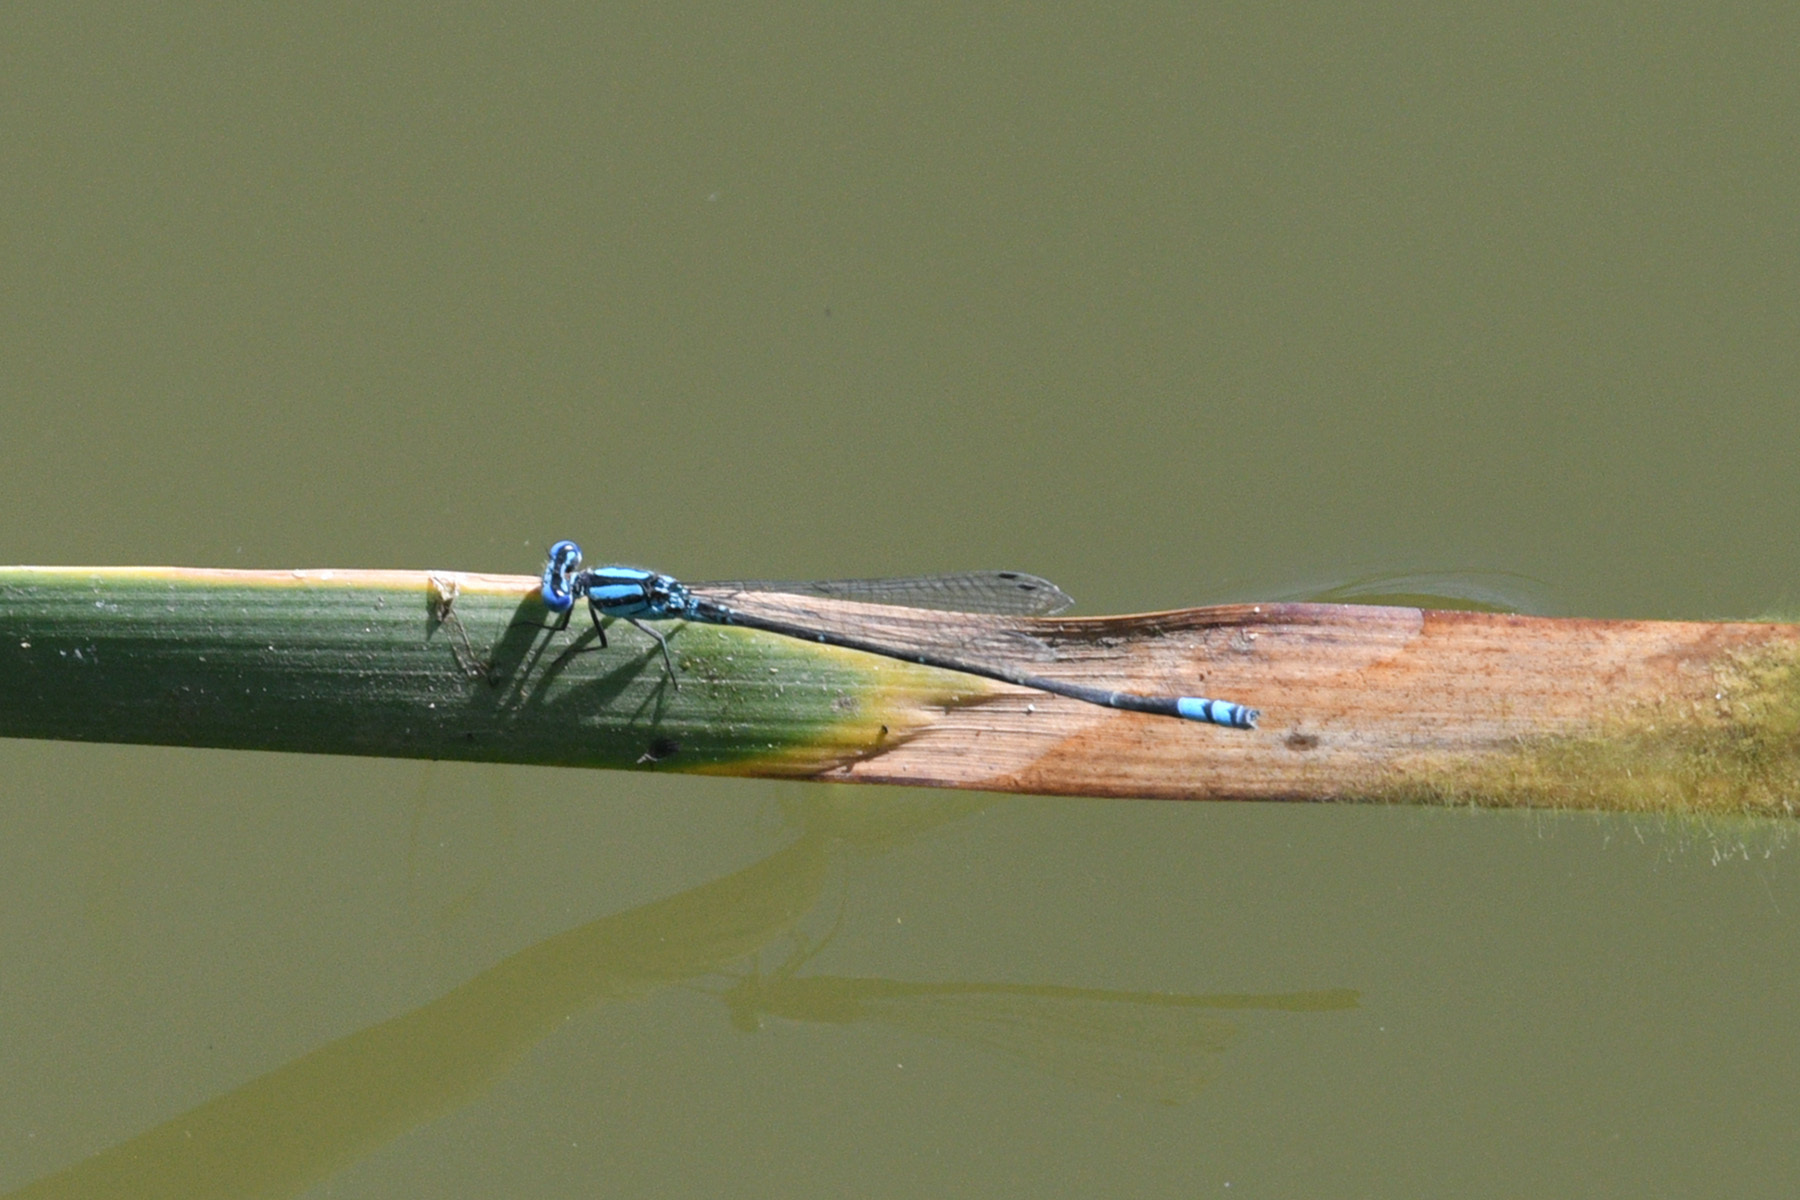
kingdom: Animalia
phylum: Arthropoda
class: Insecta
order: Odonata
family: Coenagrionidae
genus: Pseudagrion
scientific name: Pseudagrion microcephalum
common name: Blue riverdamsel
